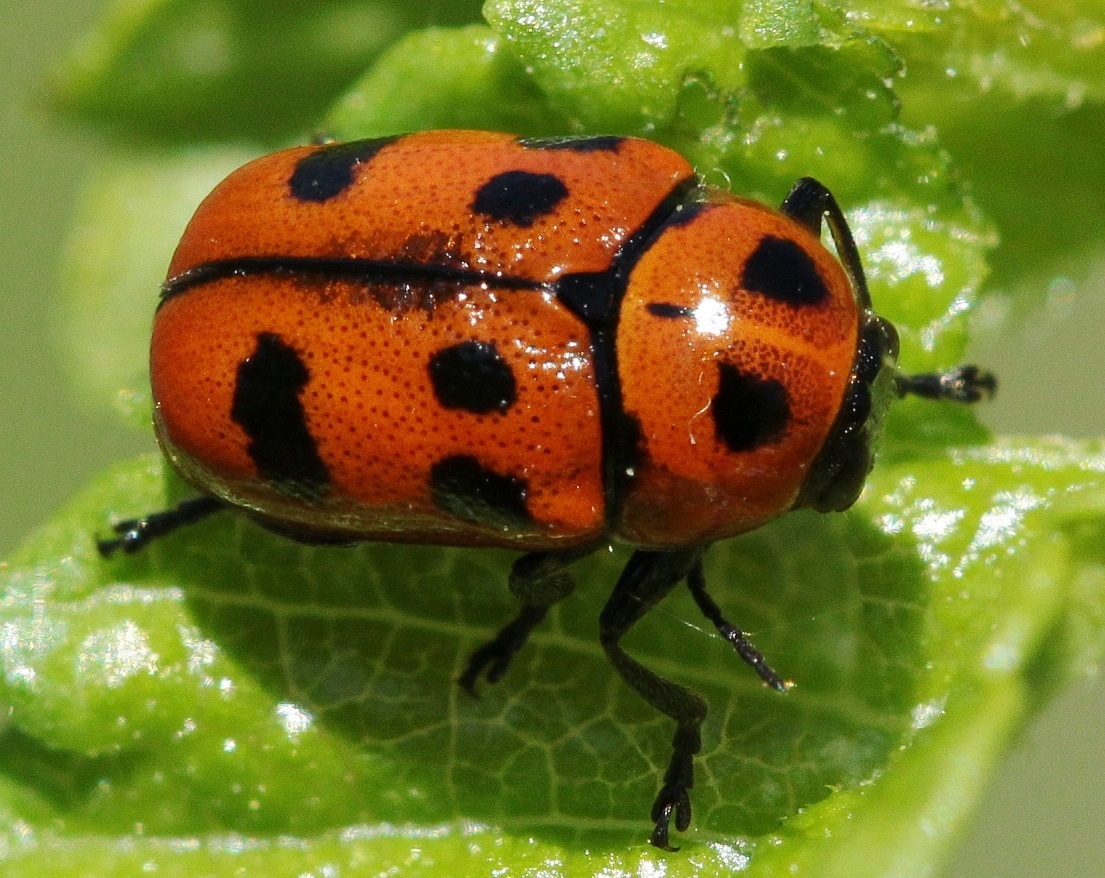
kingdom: Animalia
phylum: Arthropoda
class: Insecta
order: Coleoptera
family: Chrysomelidae
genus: Cryptocephalus
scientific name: Cryptocephalus laevicollis
